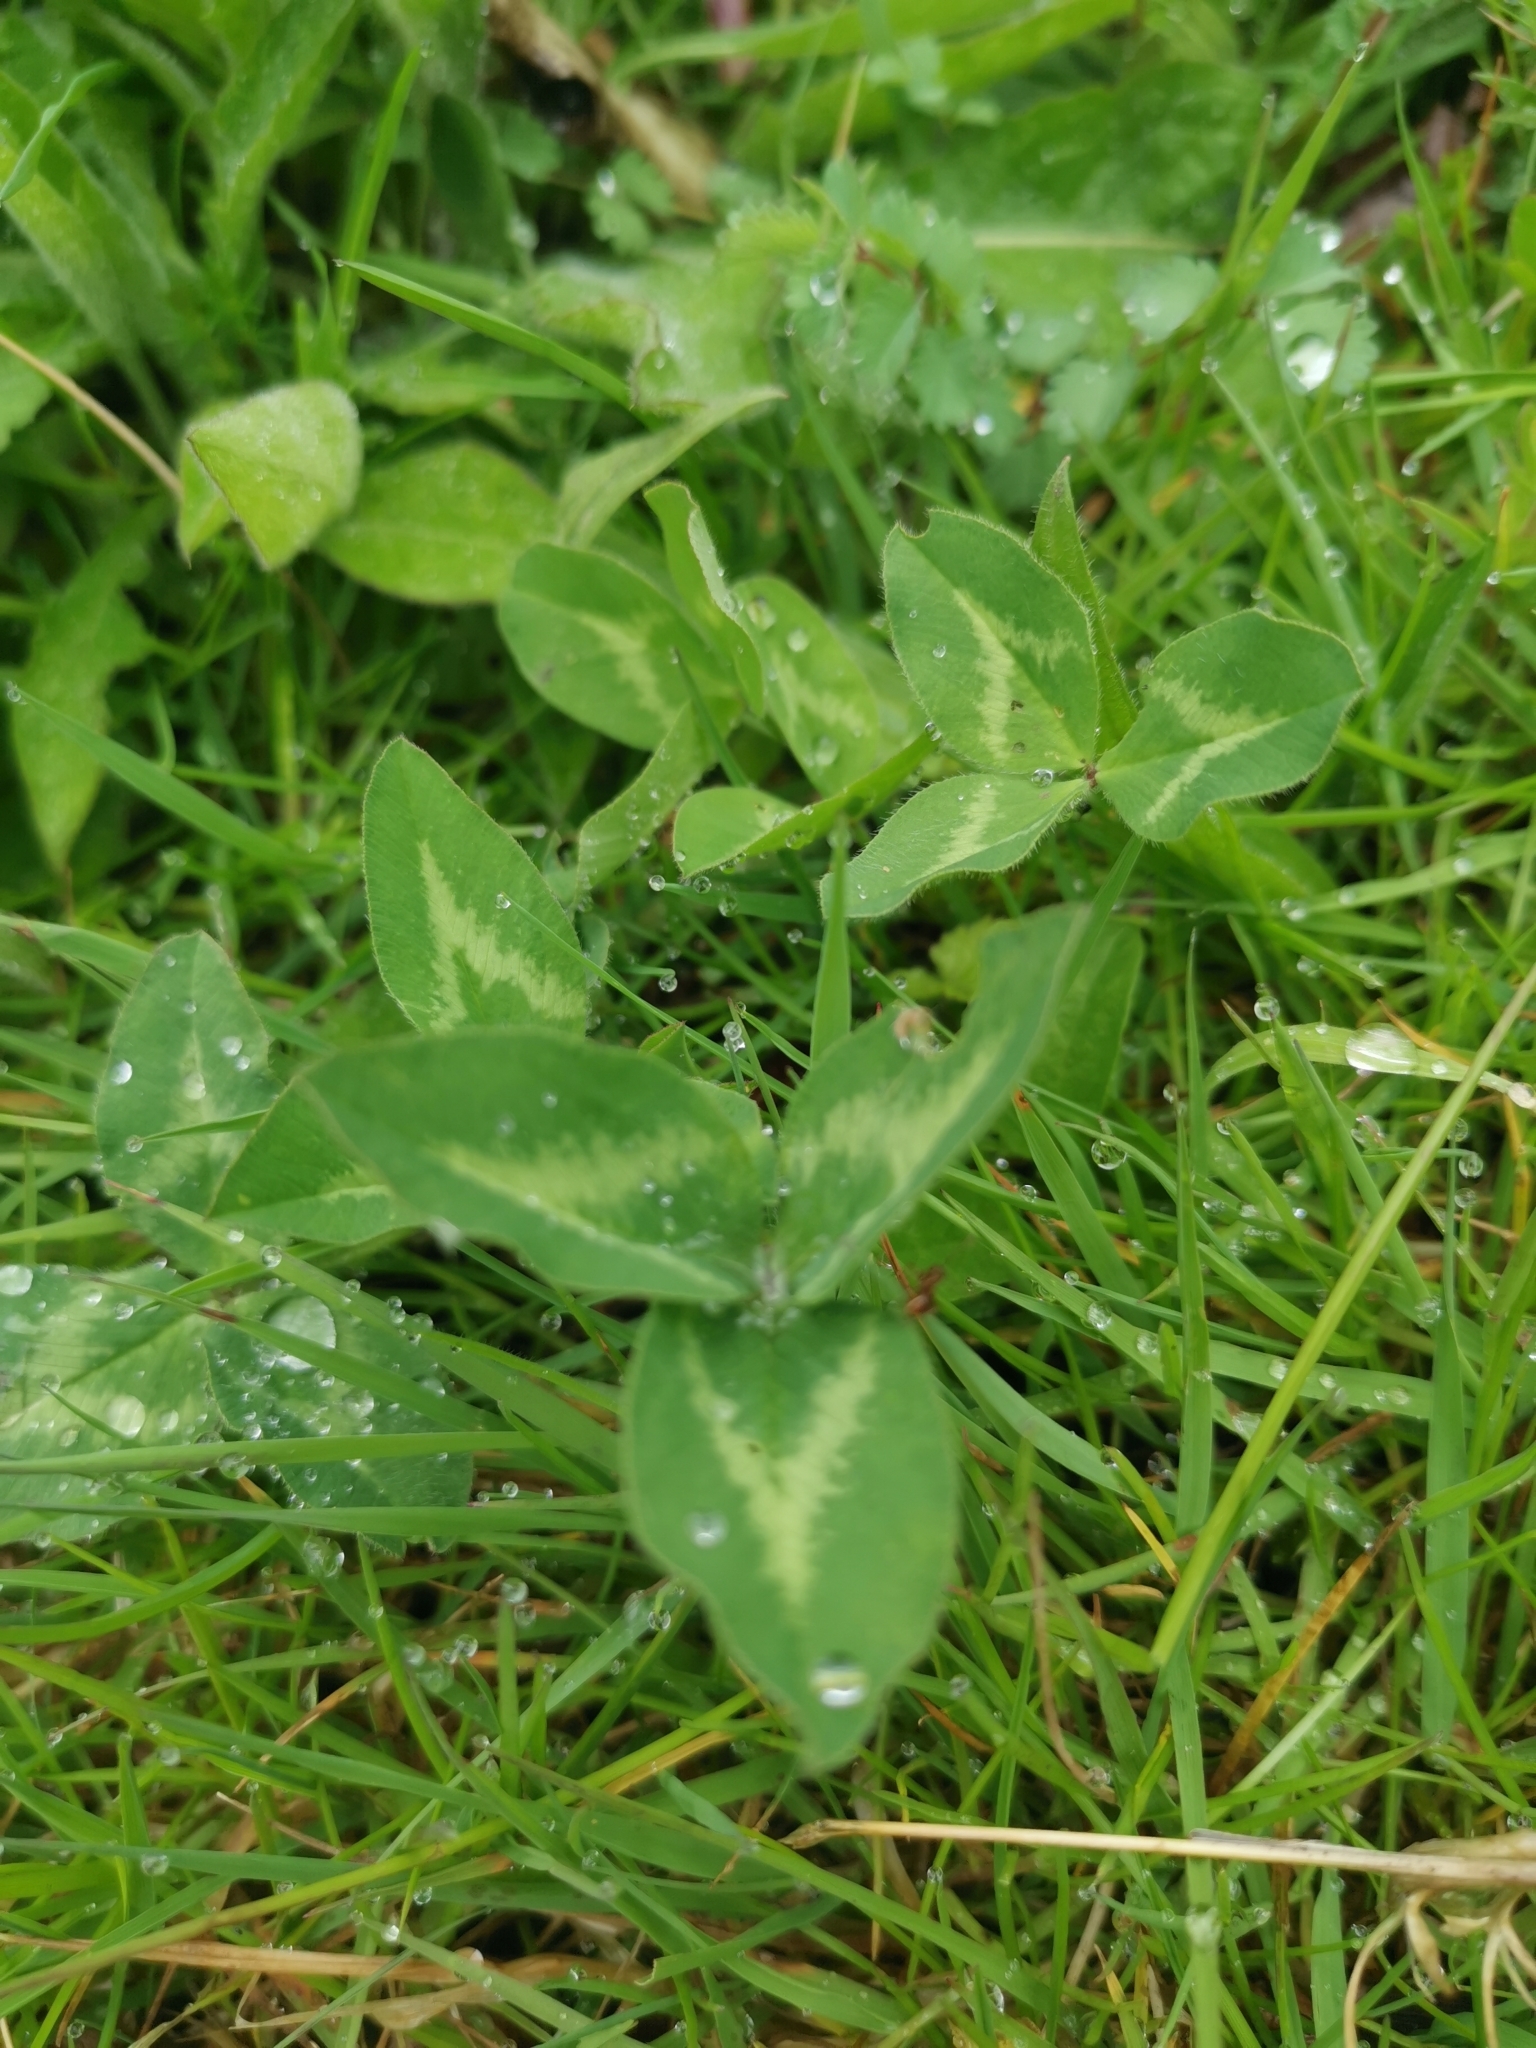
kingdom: Plantae
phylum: Tracheophyta
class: Magnoliopsida
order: Fabales
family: Fabaceae
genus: Trifolium
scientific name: Trifolium pratense
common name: Red clover
